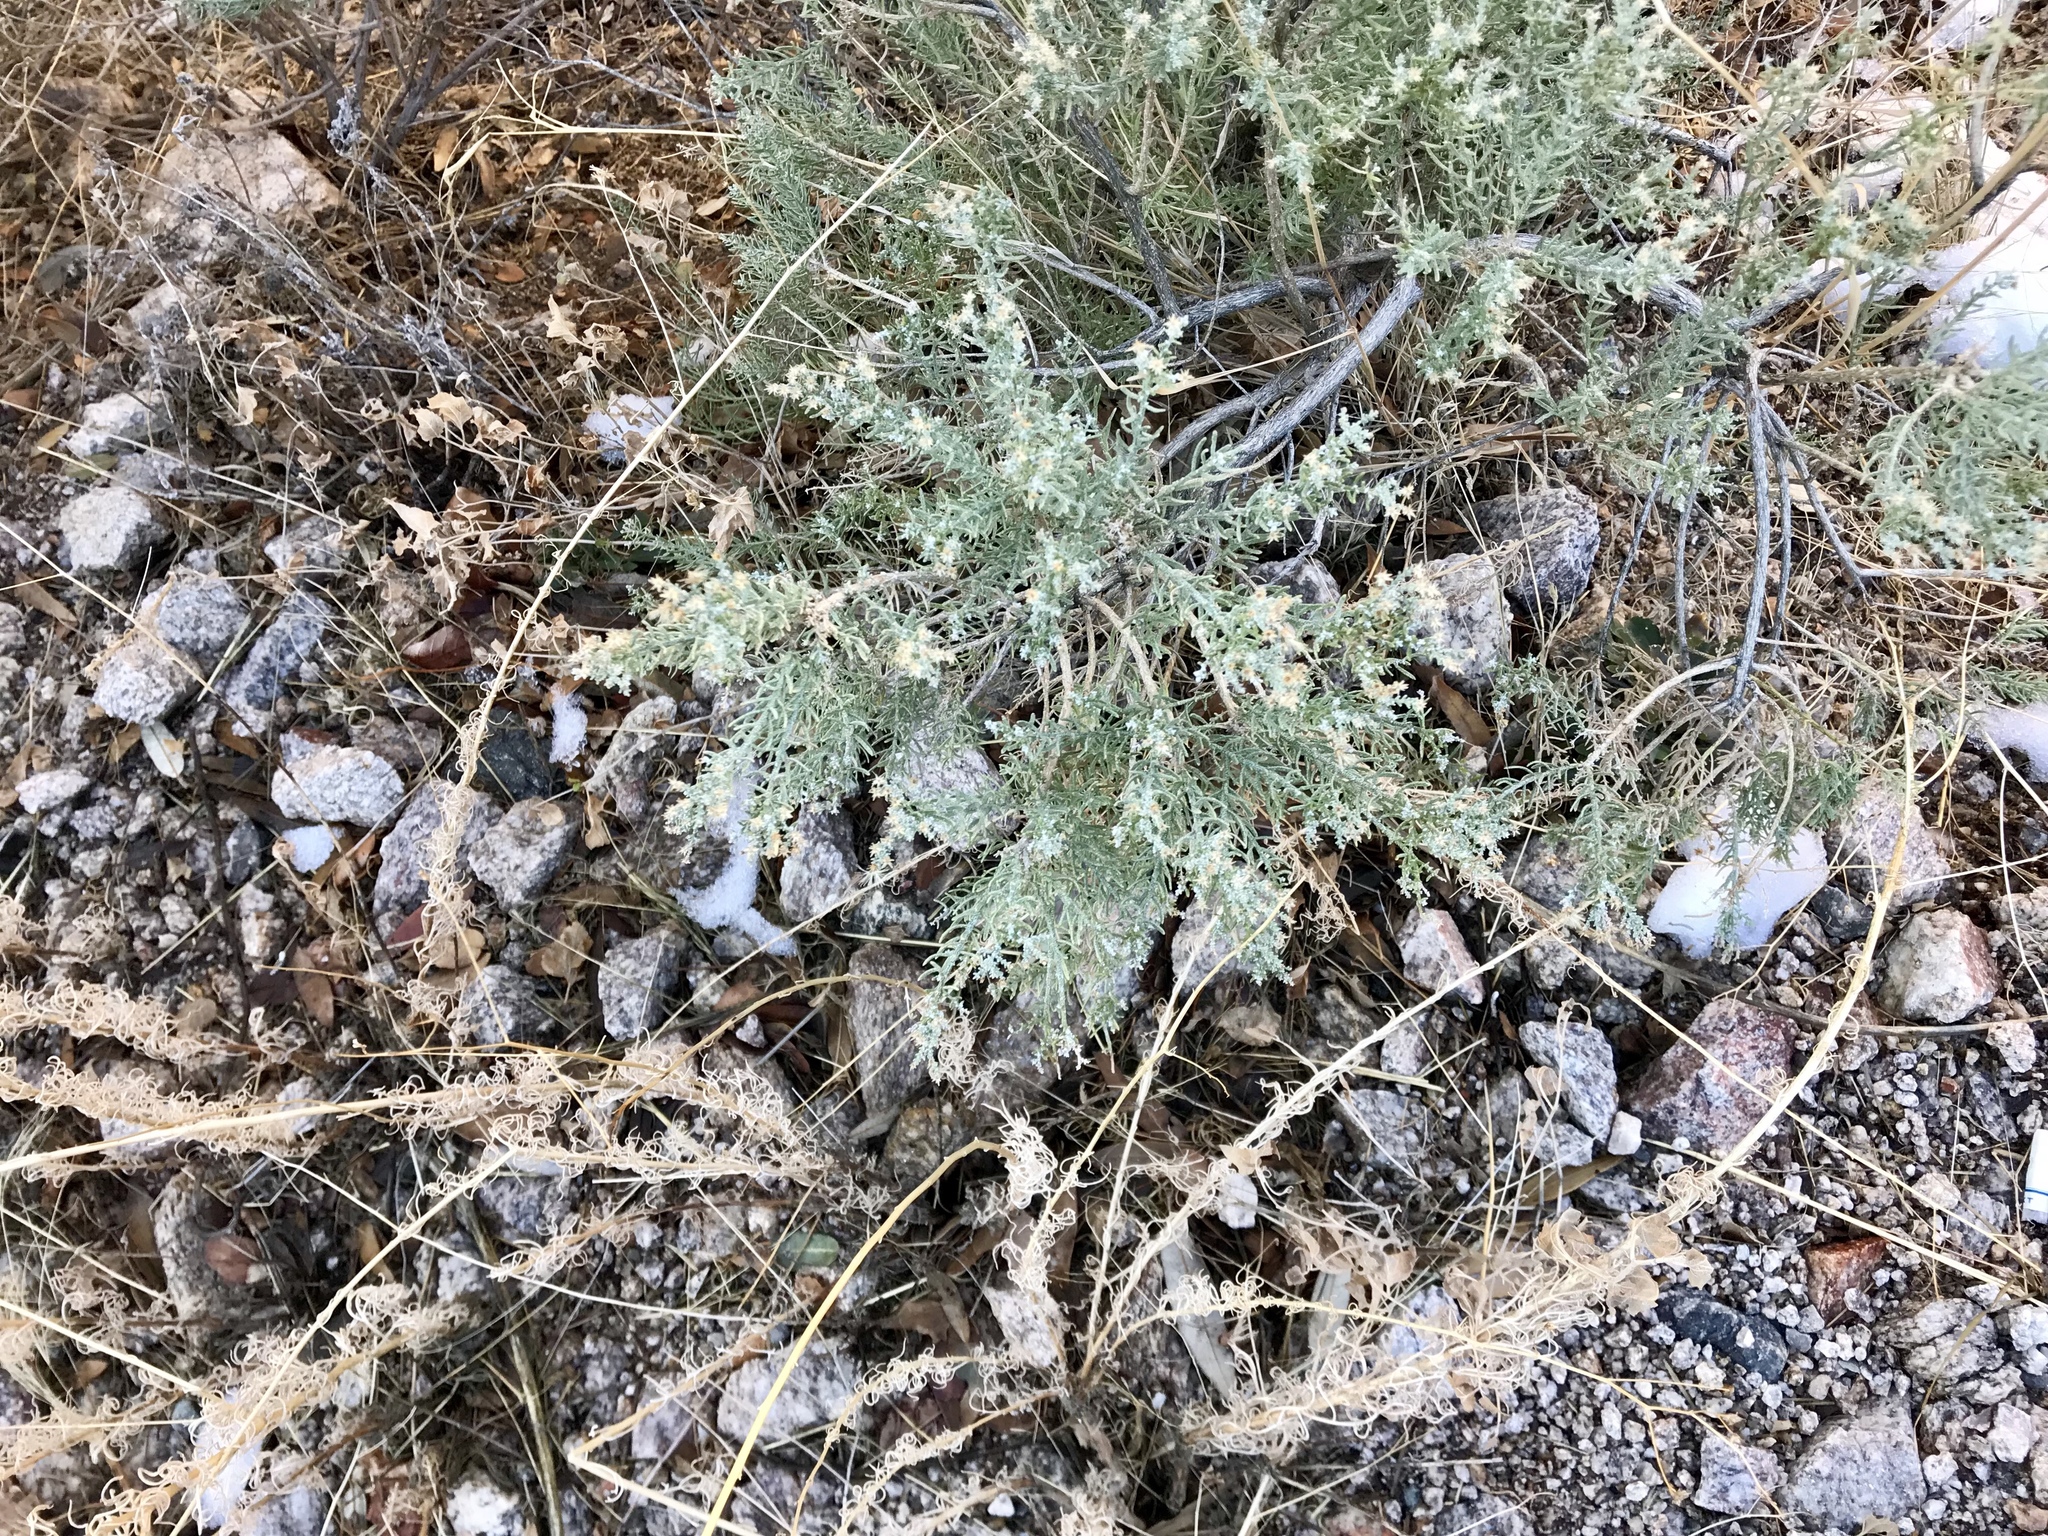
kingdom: Plantae
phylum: Tracheophyta
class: Magnoliopsida
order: Asterales
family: Asteraceae
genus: Ericameria
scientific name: Ericameria laricifolia
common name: Turpentine-bush
